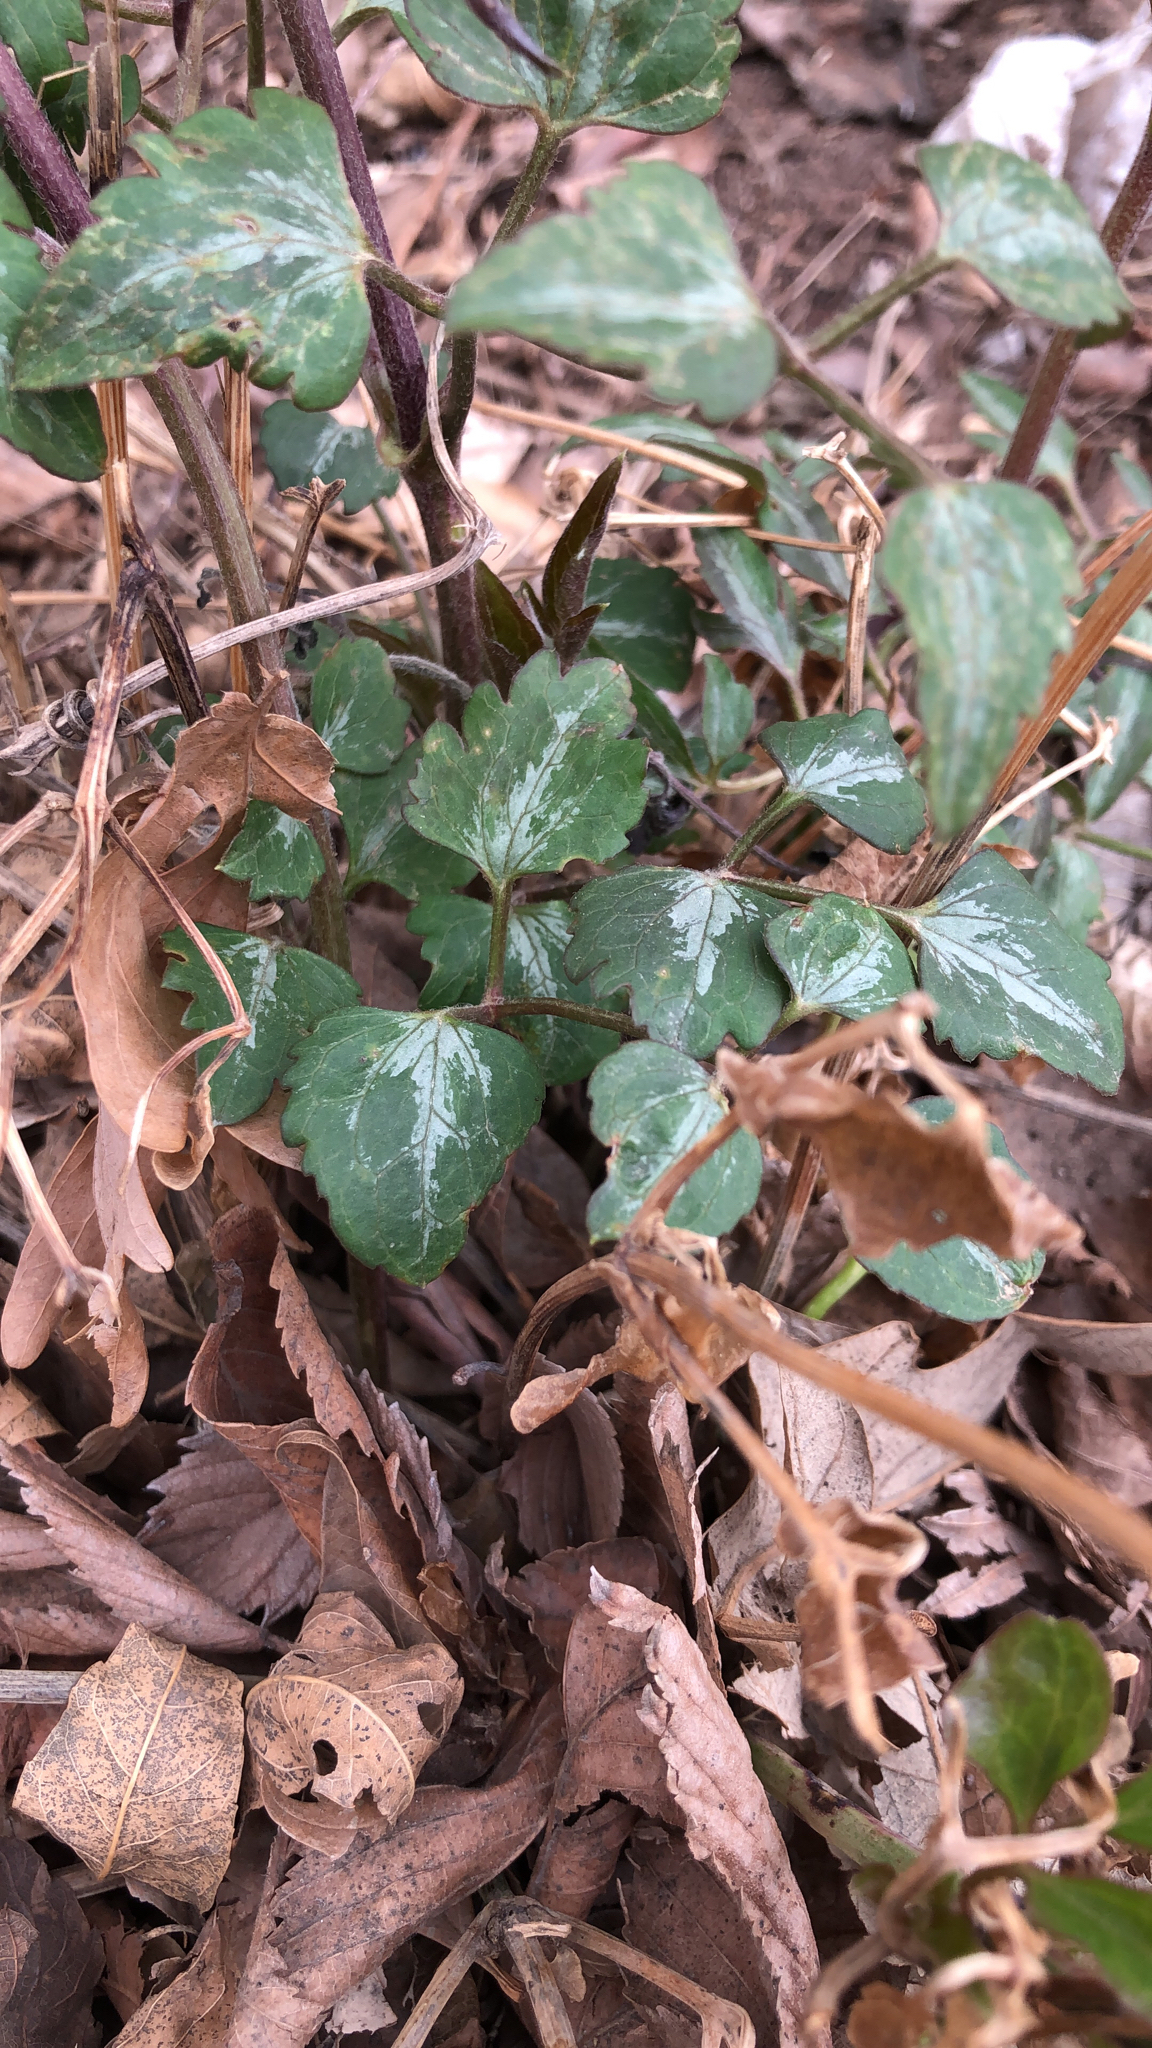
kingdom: Plantae
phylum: Tracheophyta
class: Magnoliopsida
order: Ranunculales
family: Ranunculaceae
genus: Clematis
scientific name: Clematis terniflora
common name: Sweet autumn clematis
